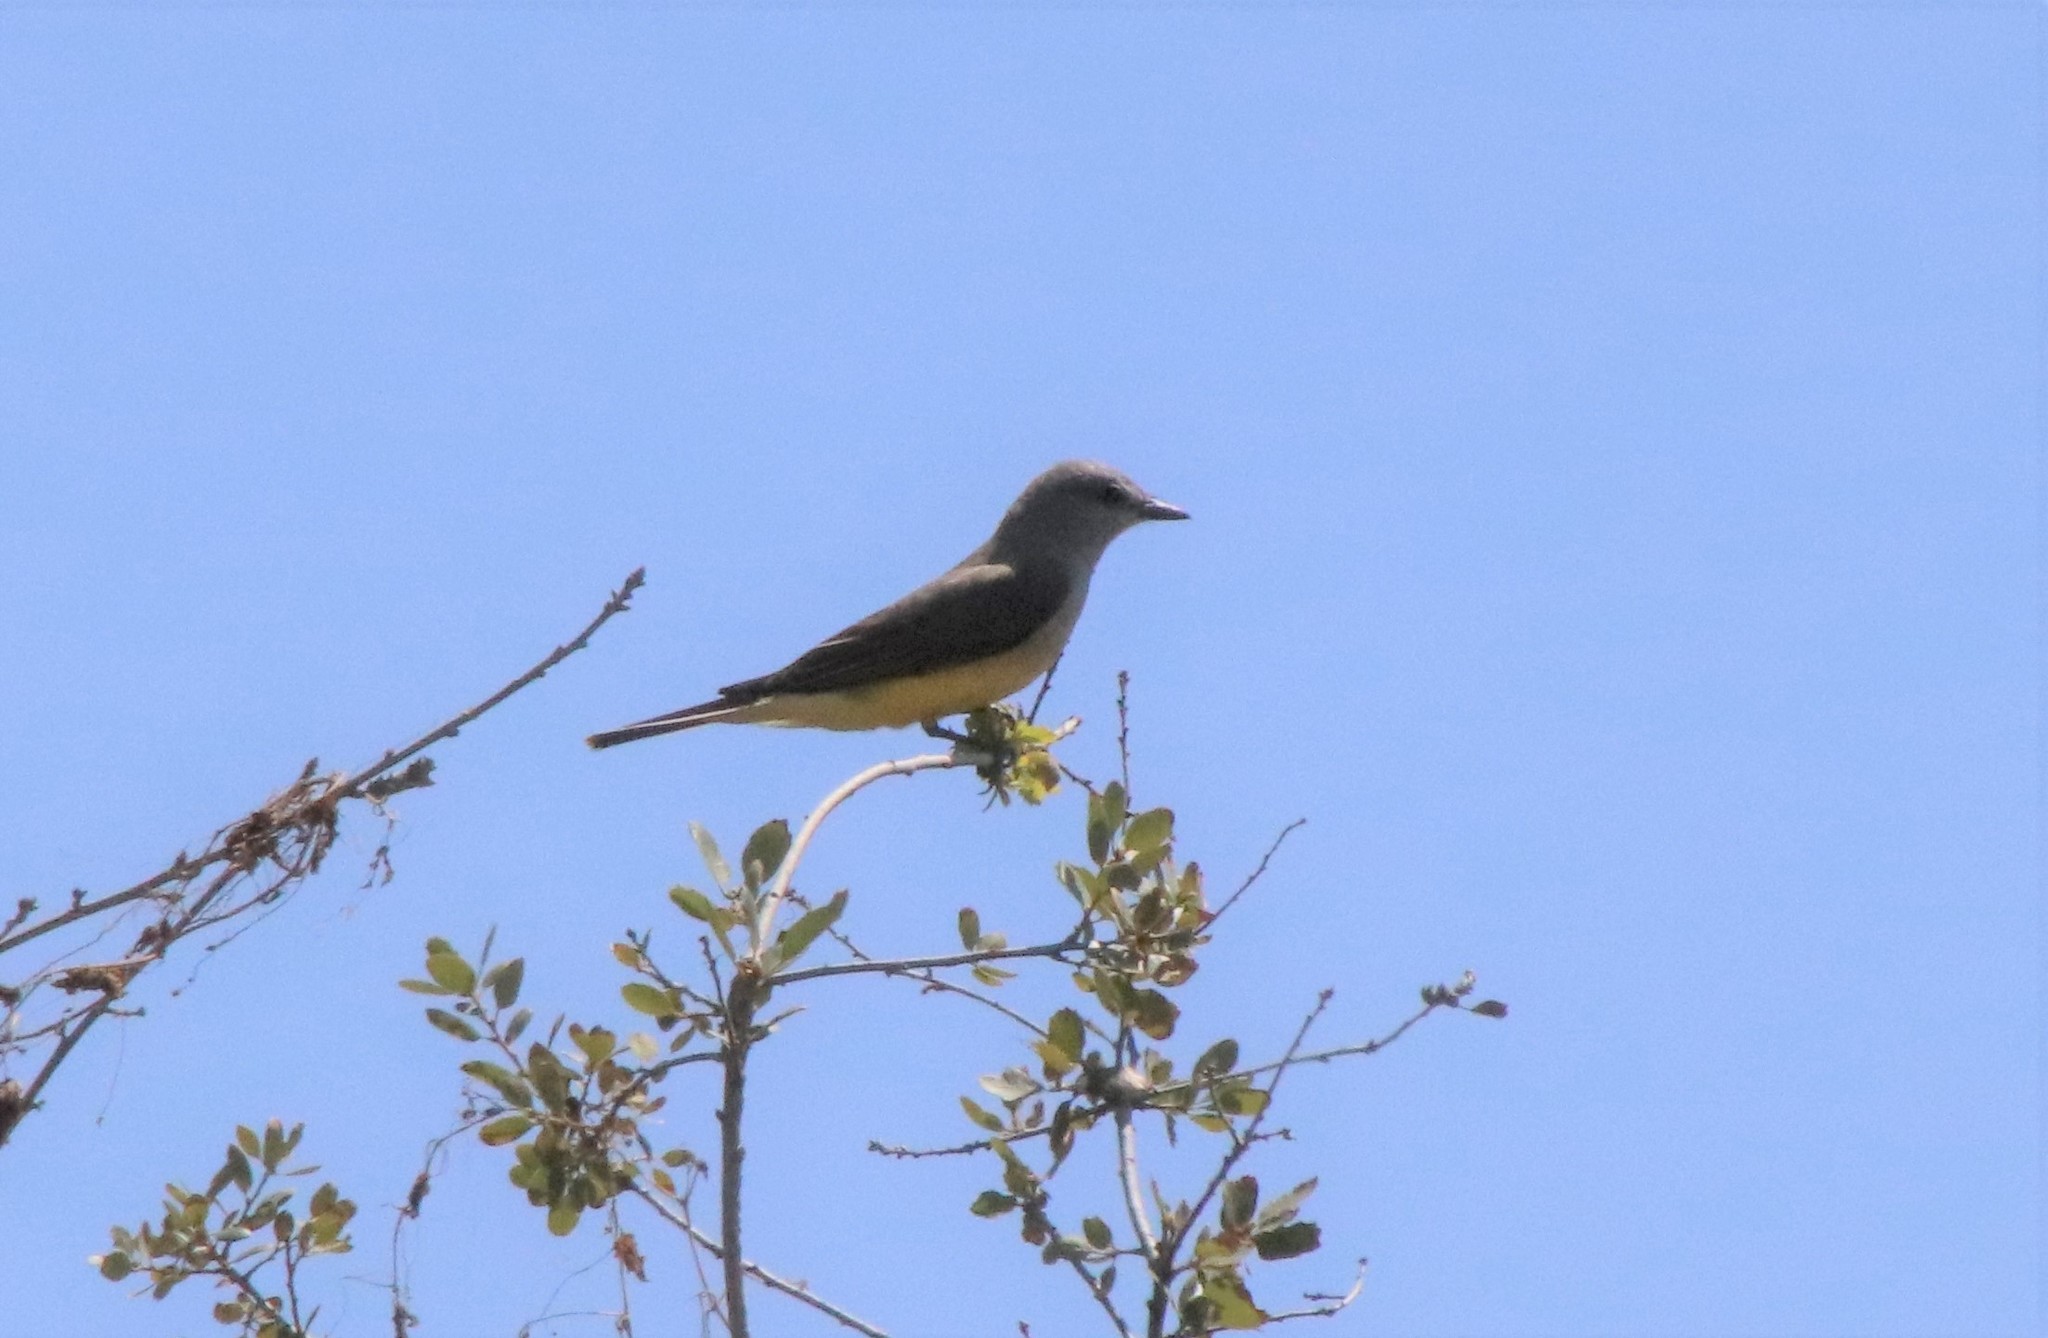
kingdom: Animalia
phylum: Chordata
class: Aves
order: Passeriformes
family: Tyrannidae
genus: Tyrannus
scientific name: Tyrannus verticalis
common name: Western kingbird
